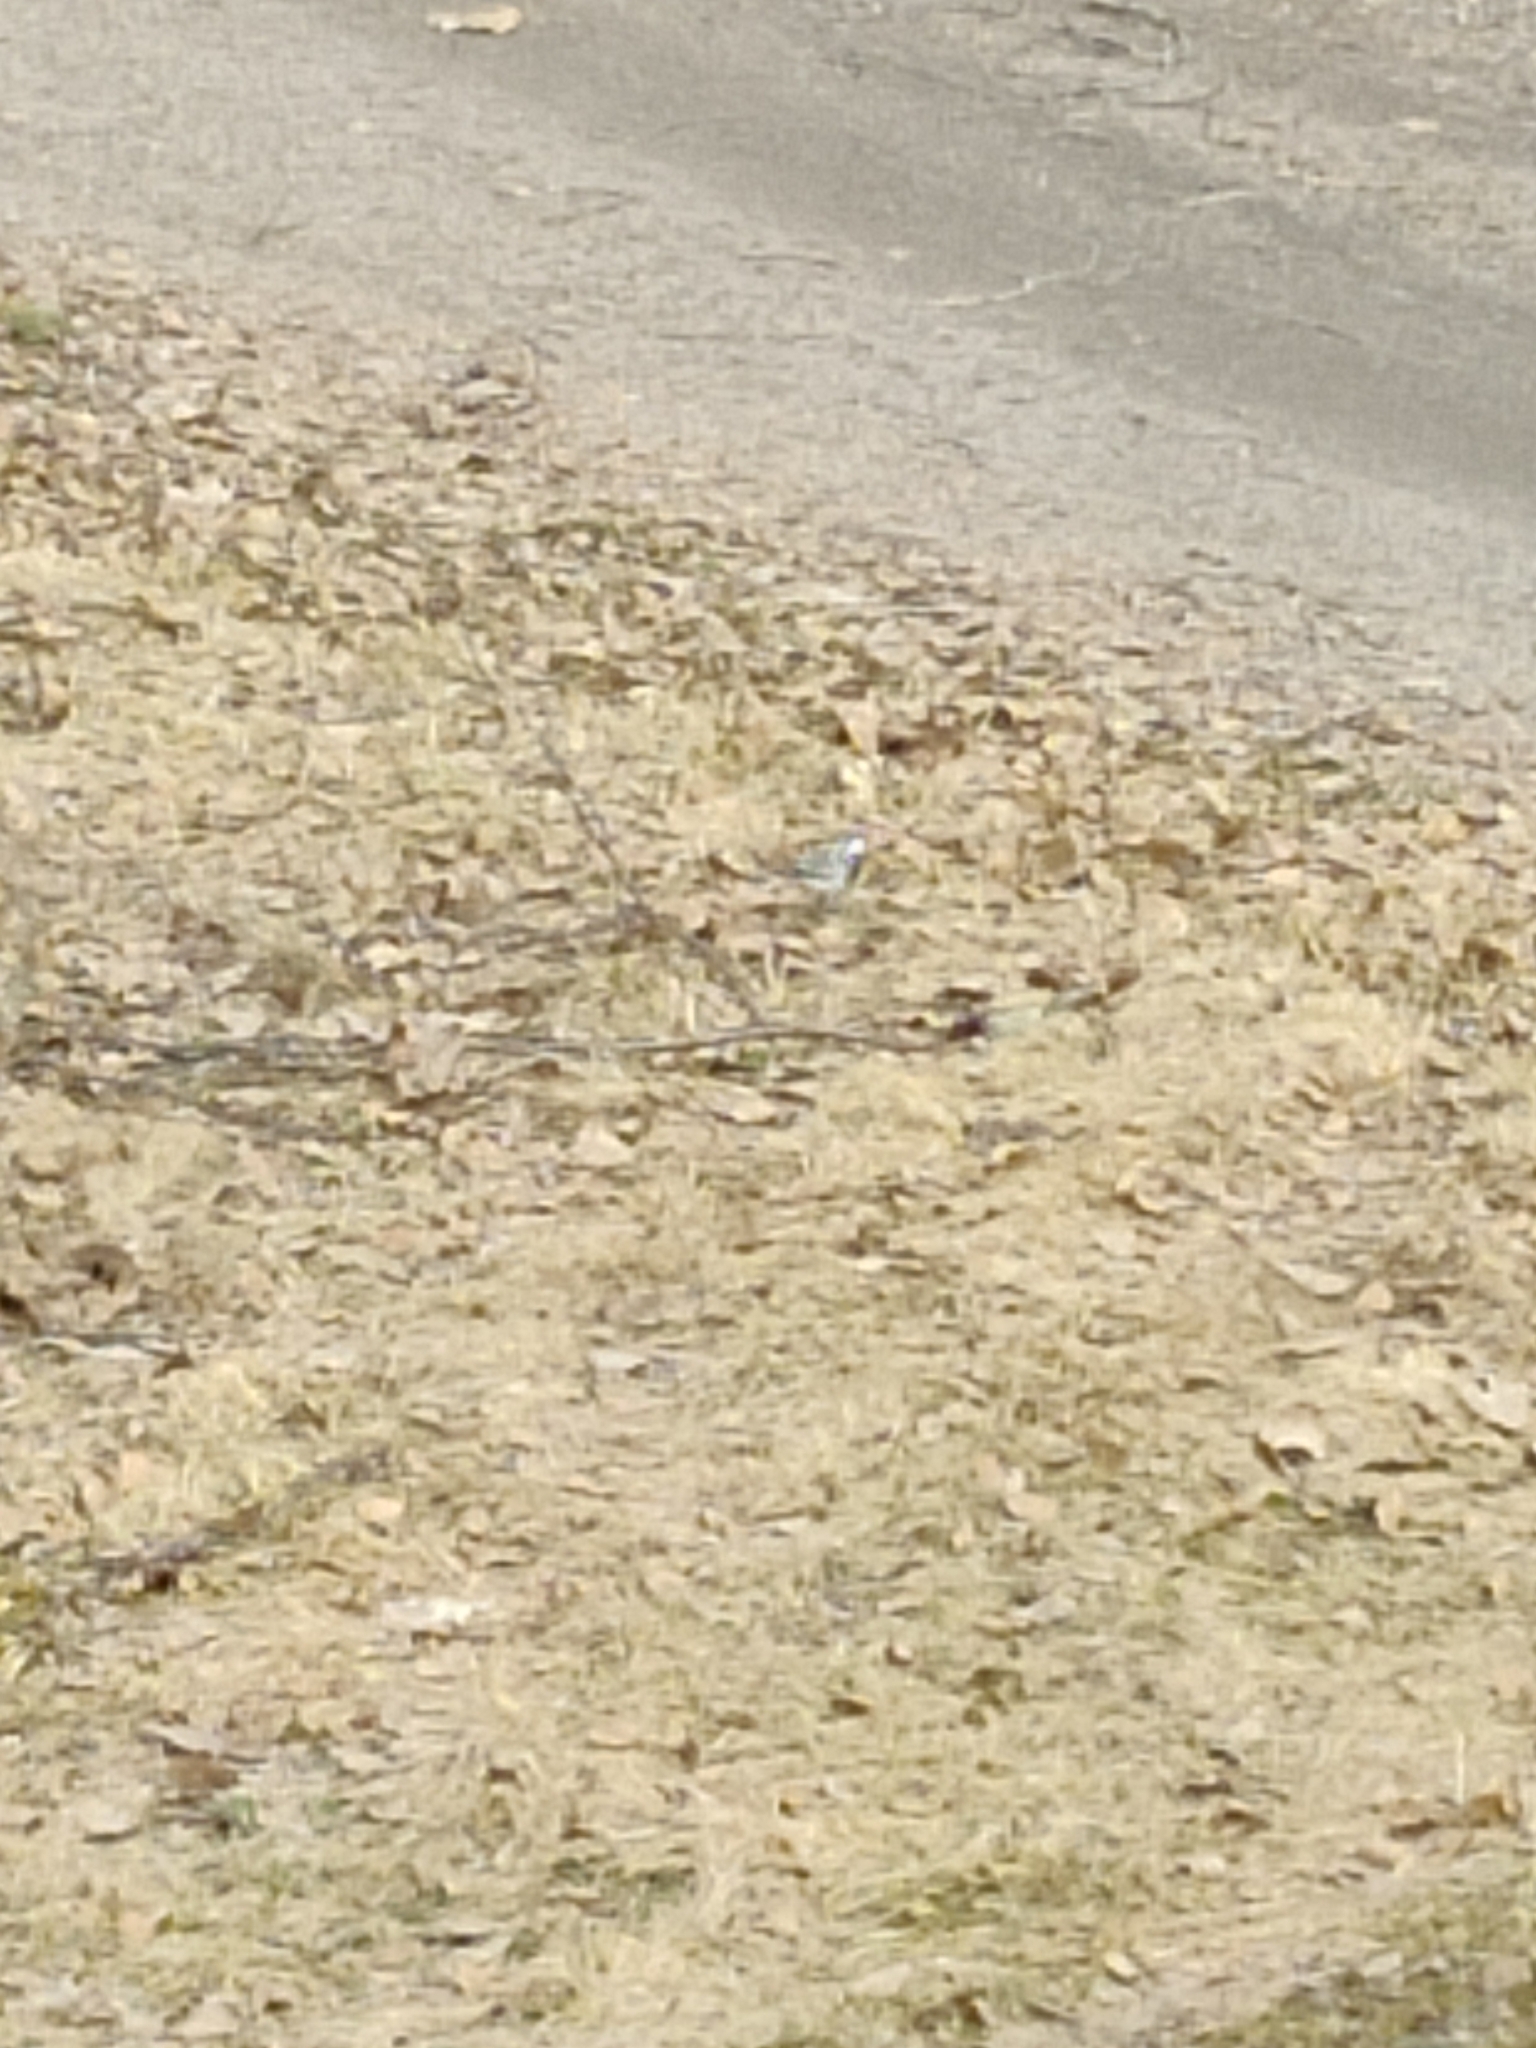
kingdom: Animalia
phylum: Chordata
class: Aves
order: Passeriformes
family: Motacillidae
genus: Motacilla
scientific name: Motacilla alba
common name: White wagtail
